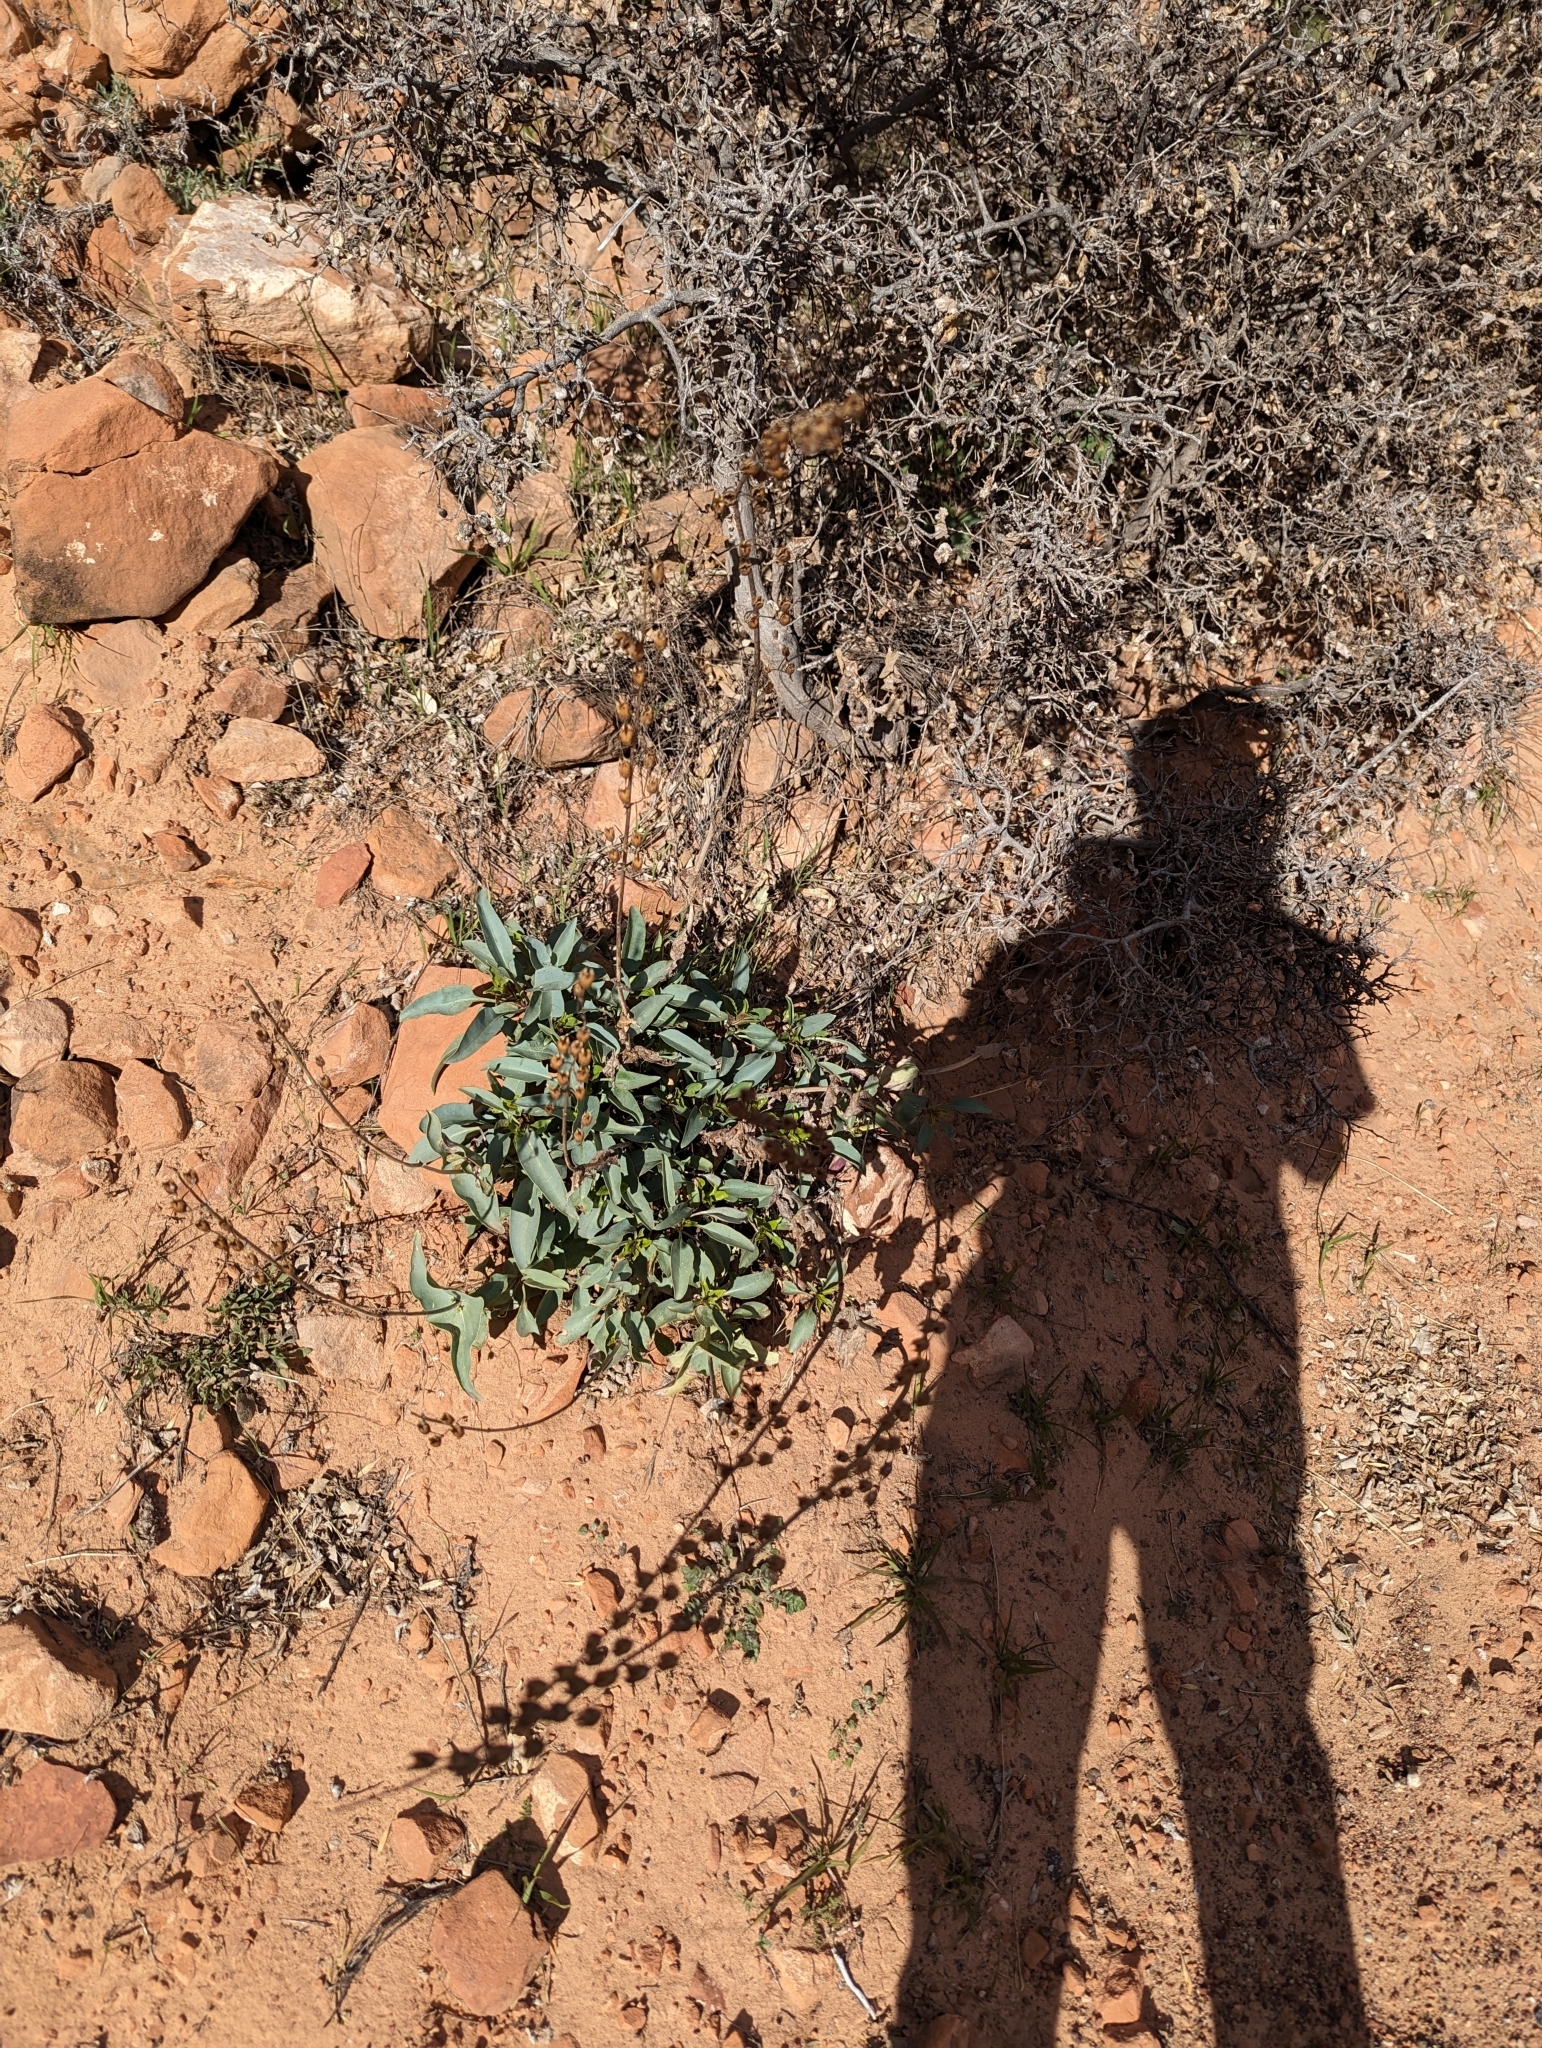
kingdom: Plantae
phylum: Tracheophyta
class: Magnoliopsida
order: Lamiales
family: Plantaginaceae
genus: Penstemon
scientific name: Penstemon palmeri
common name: Palmer penstemon
